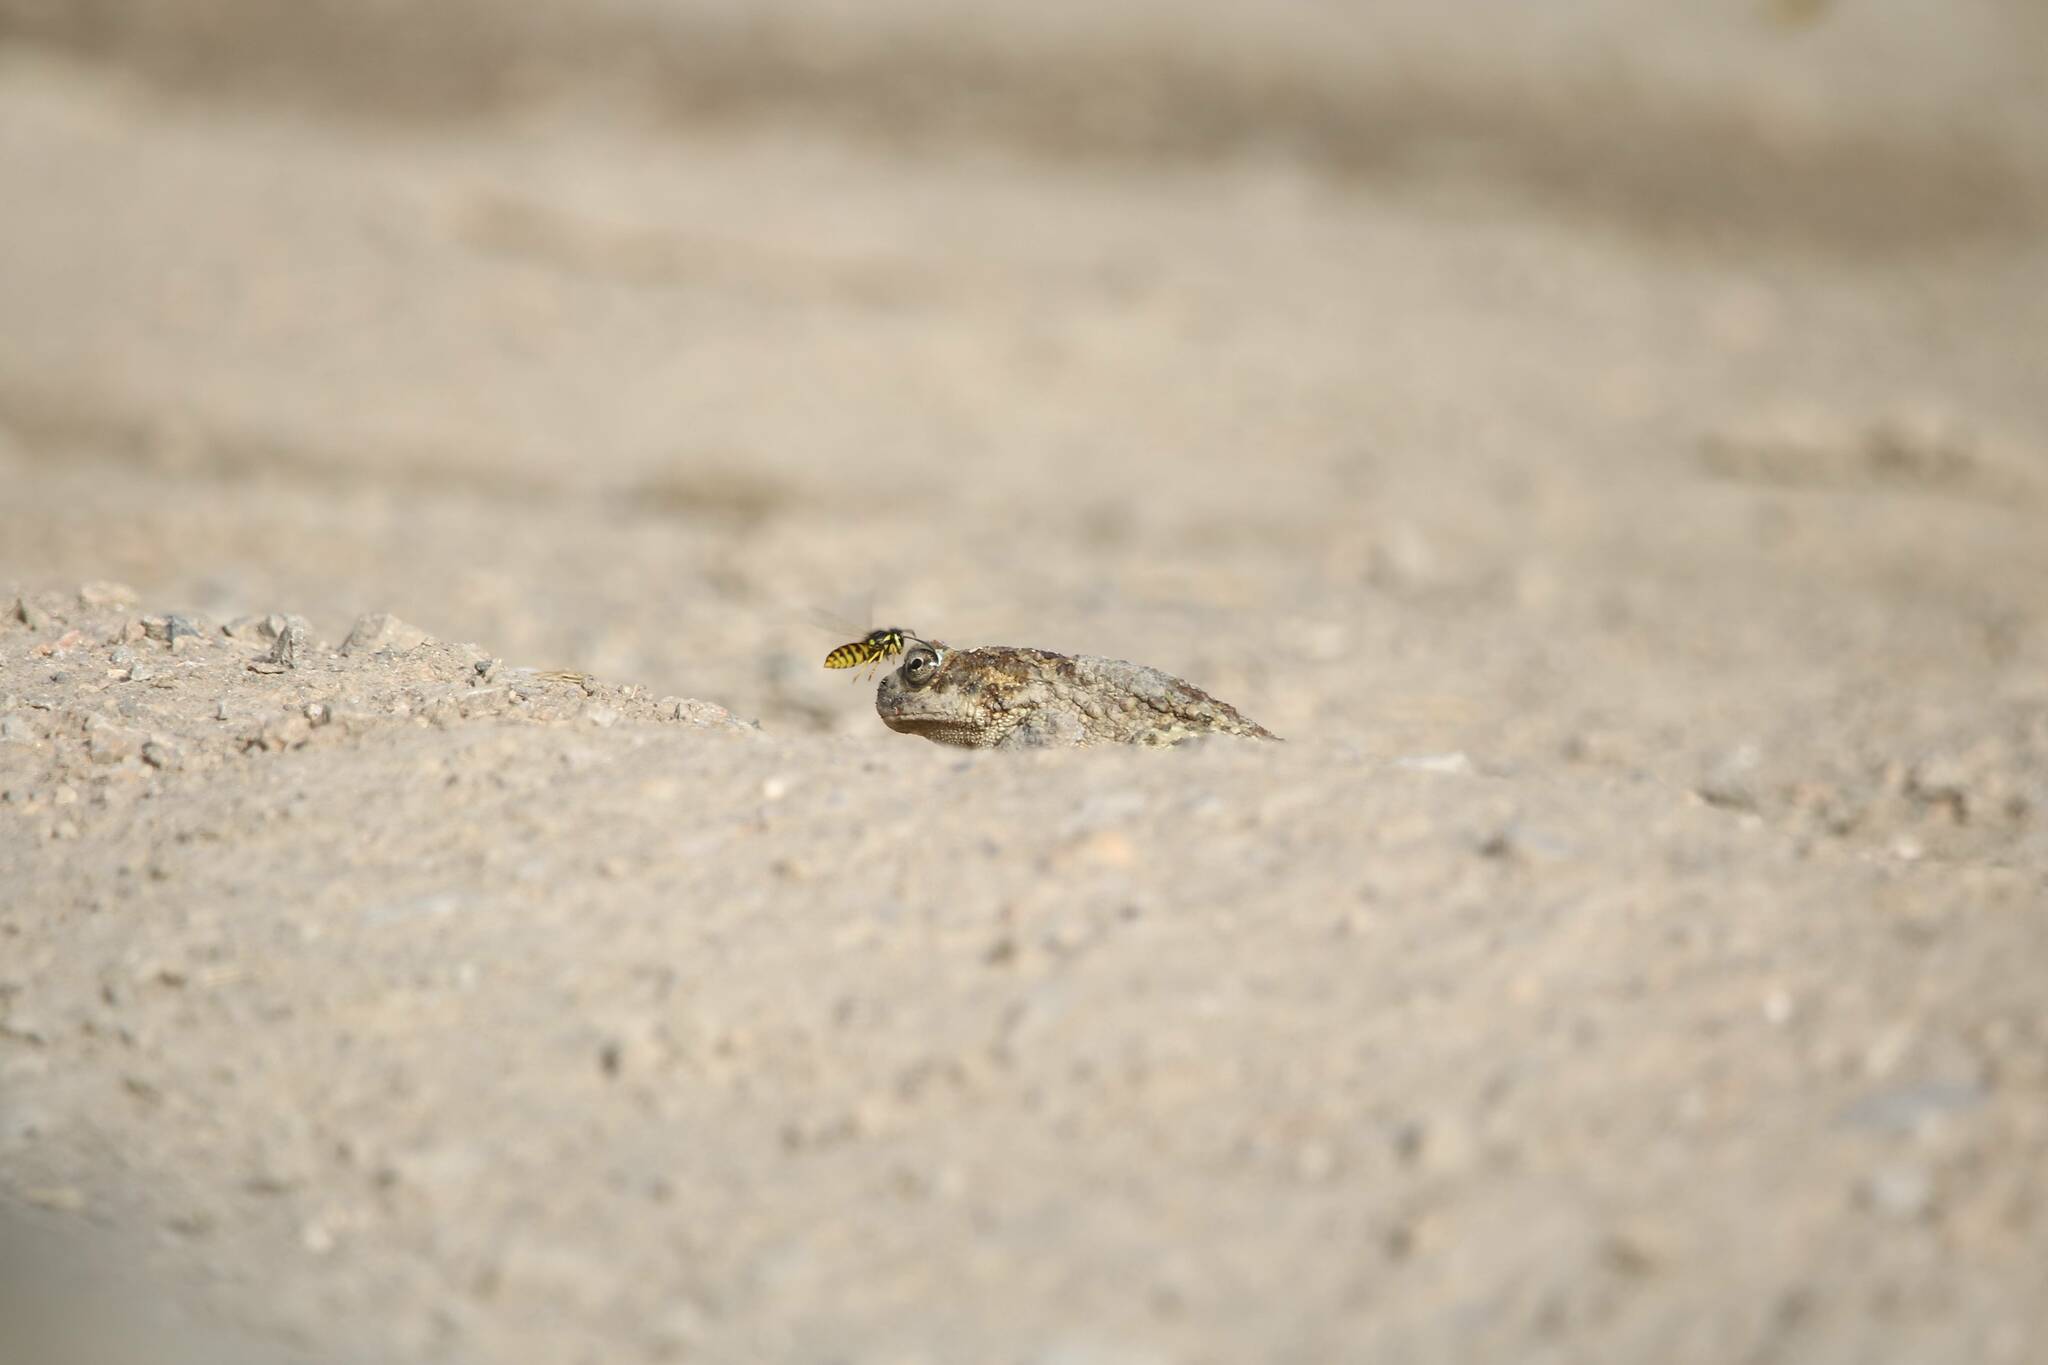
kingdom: Animalia
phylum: Chordata
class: Amphibia
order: Anura
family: Bufonidae
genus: Sclerophrys
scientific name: Sclerophrys mauritanica
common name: Berber toad
